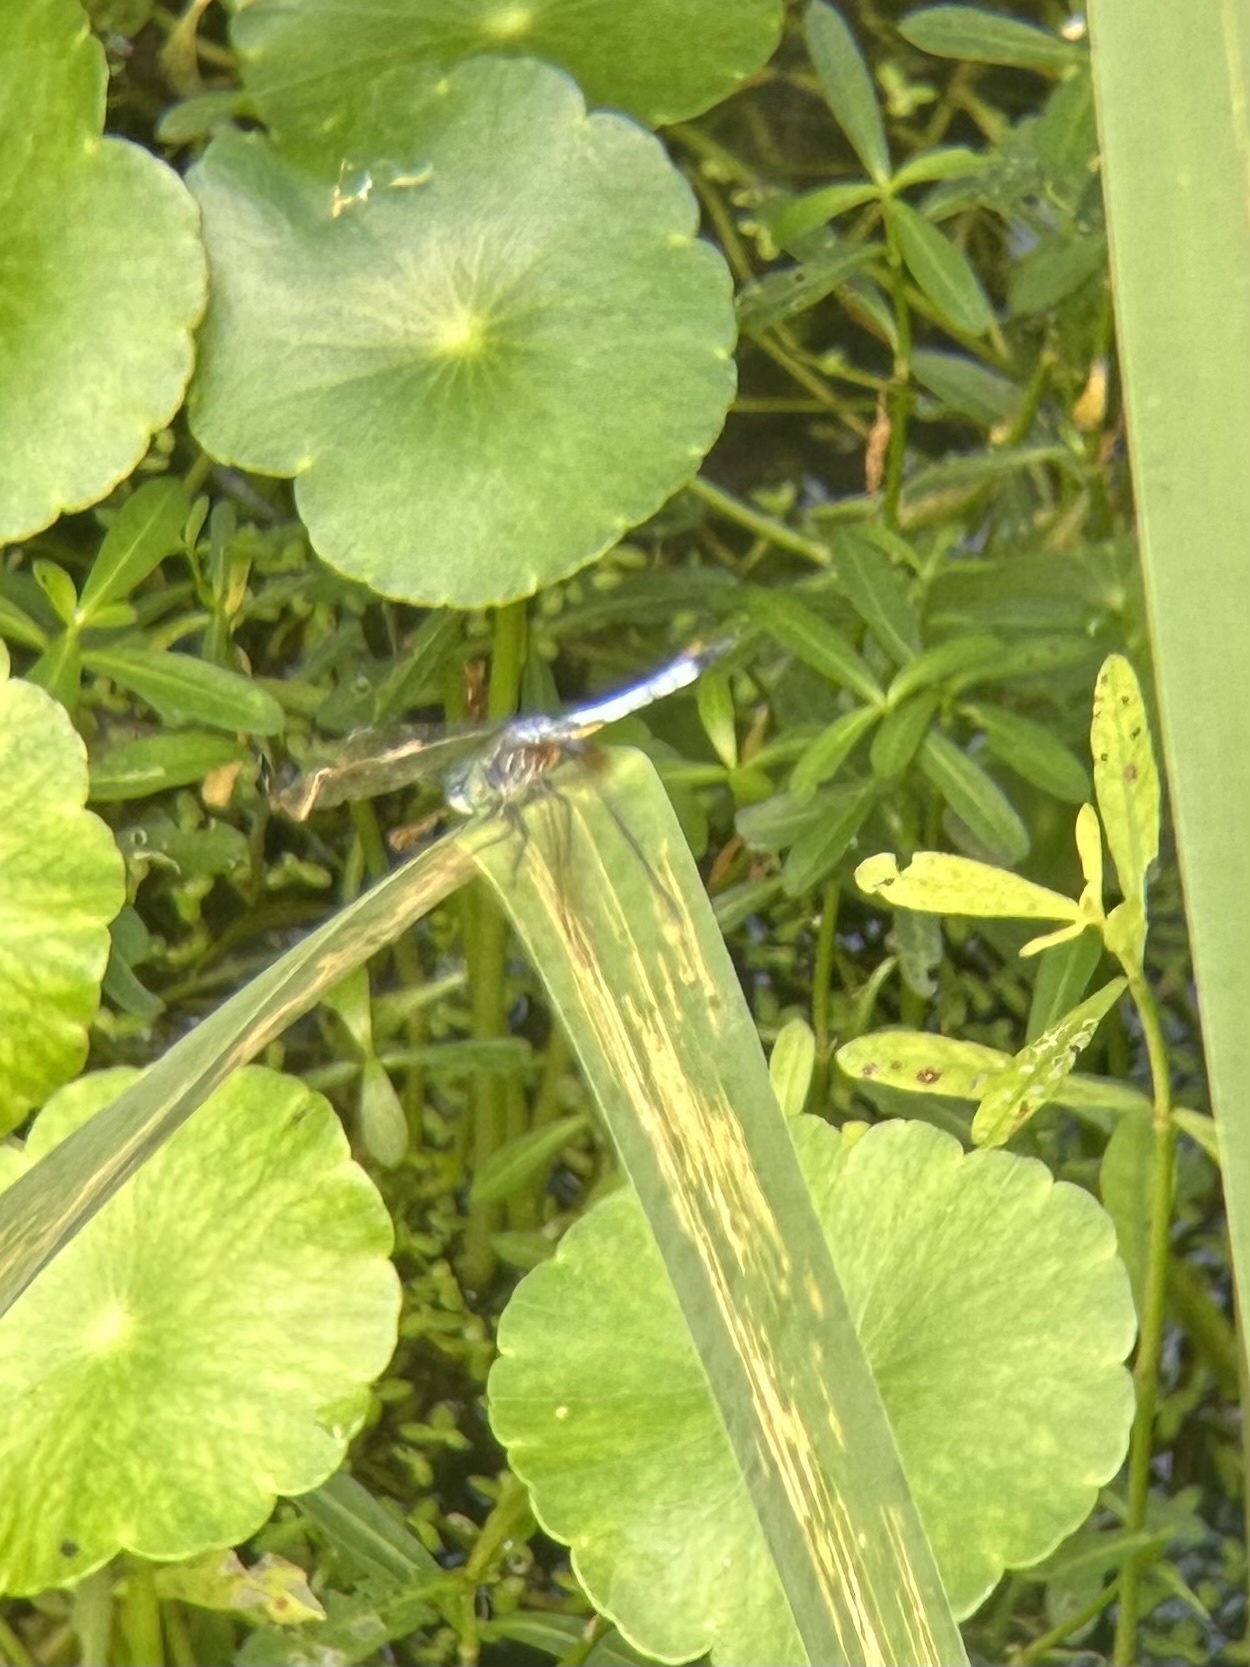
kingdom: Animalia
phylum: Arthropoda
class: Insecta
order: Odonata
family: Libellulidae
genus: Pachydiplax
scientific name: Pachydiplax longipennis
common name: Blue dasher
